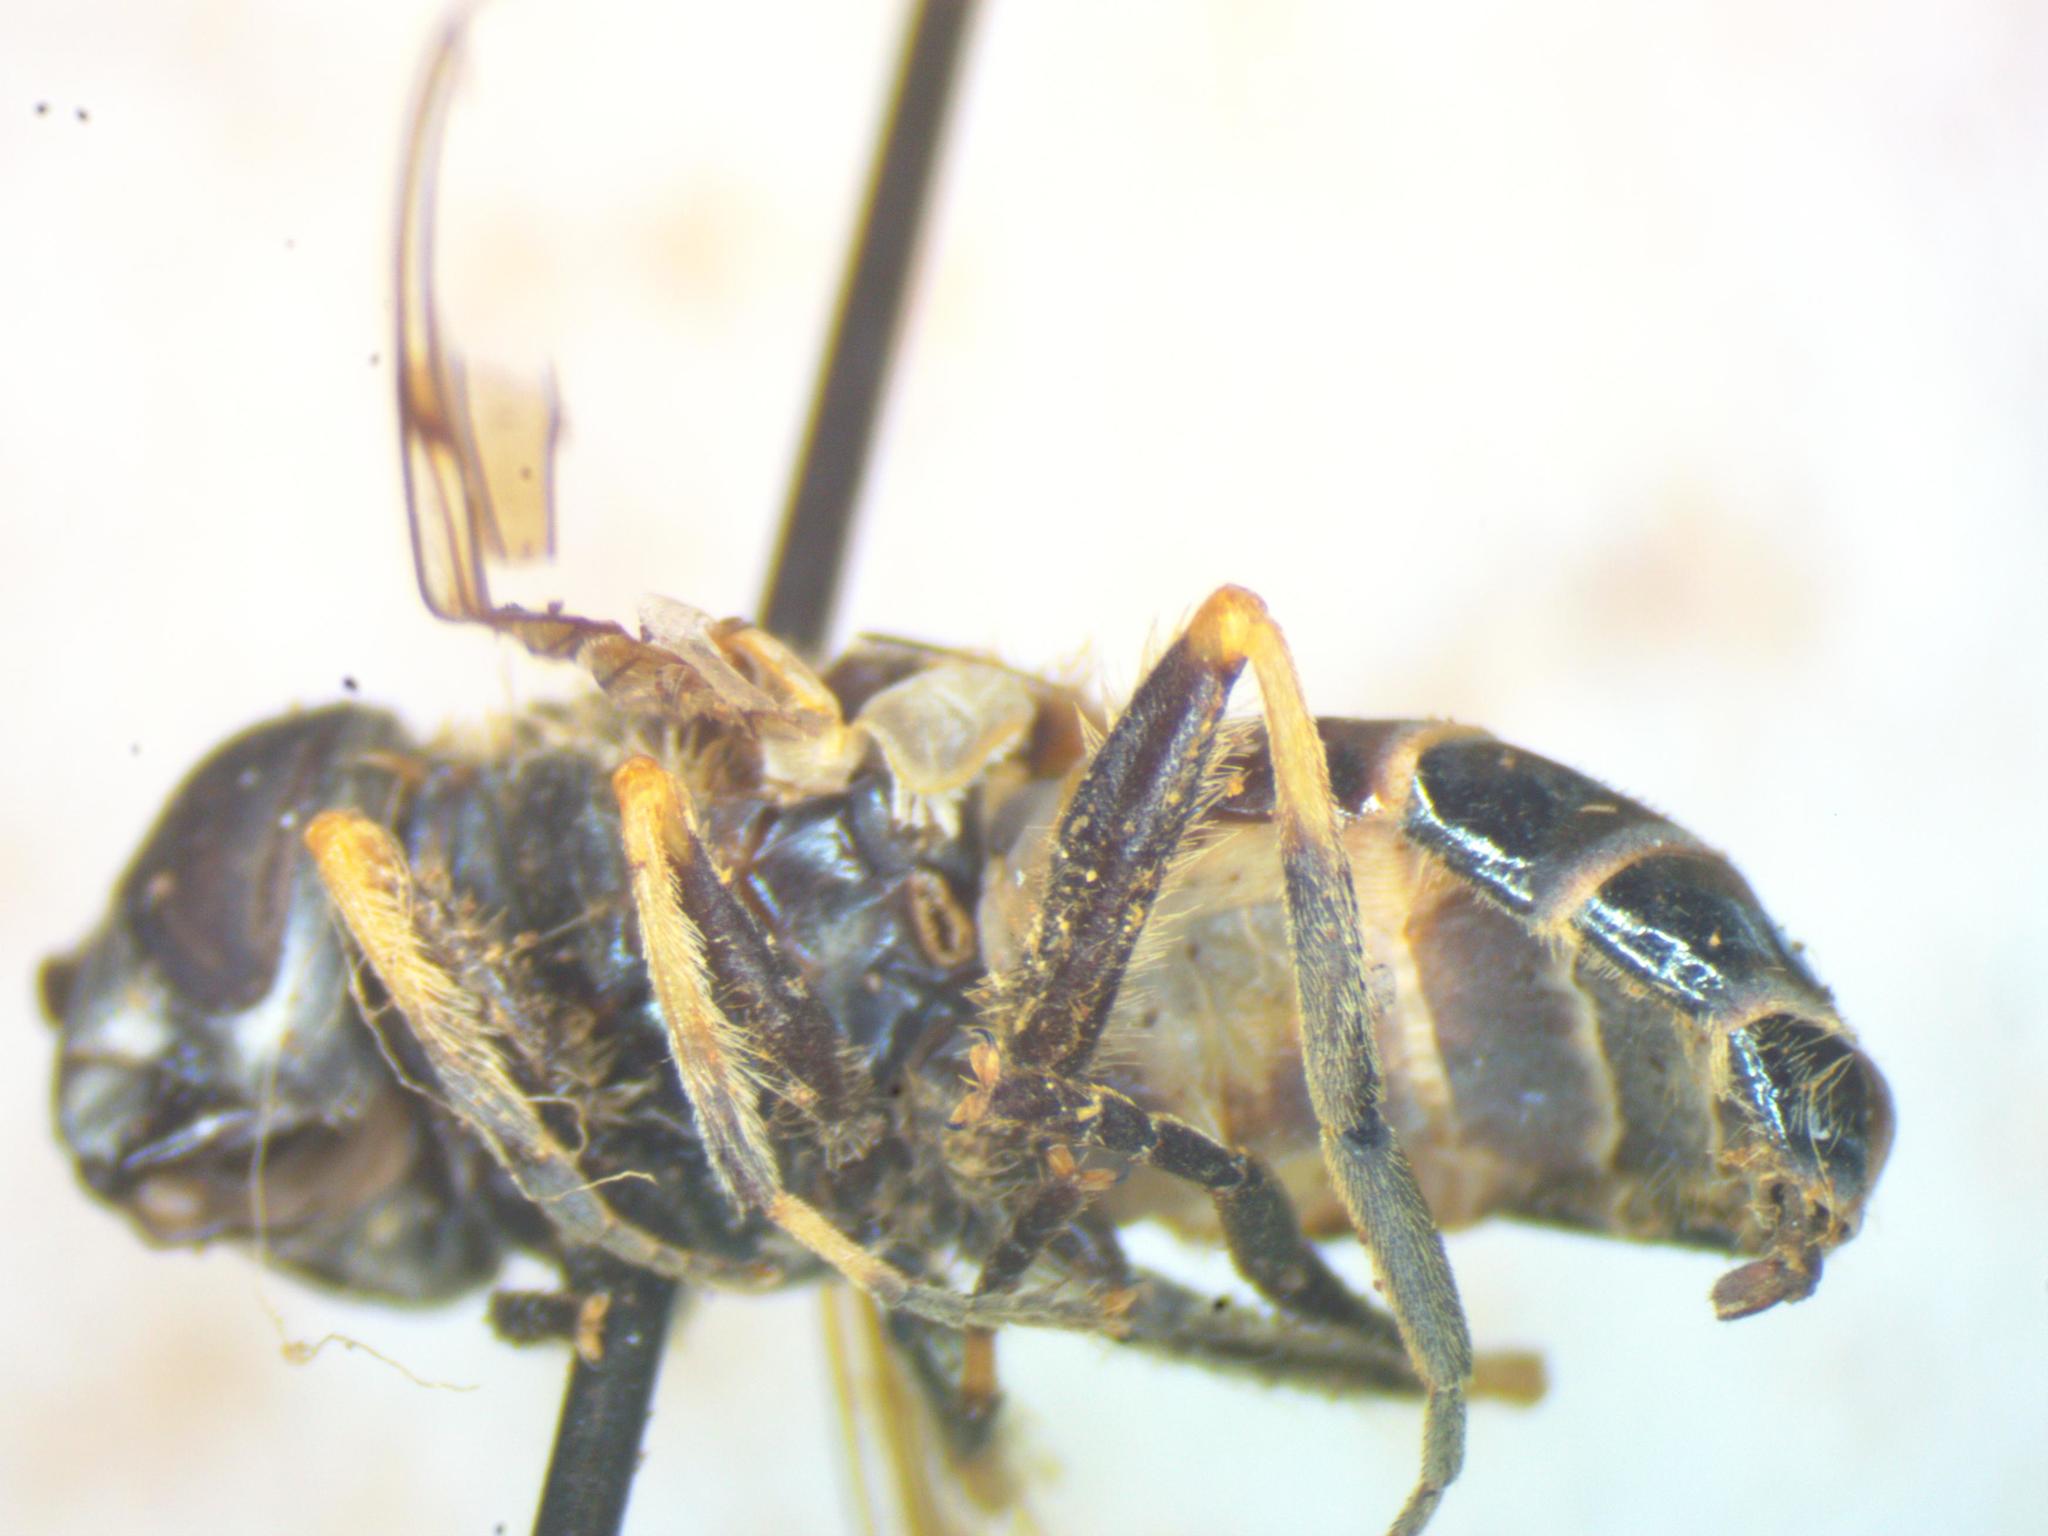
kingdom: Animalia
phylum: Arthropoda
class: Insecta
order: Diptera
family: Syrphidae
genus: Eristalis
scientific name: Eristalis arbustorum
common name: Hover fly
